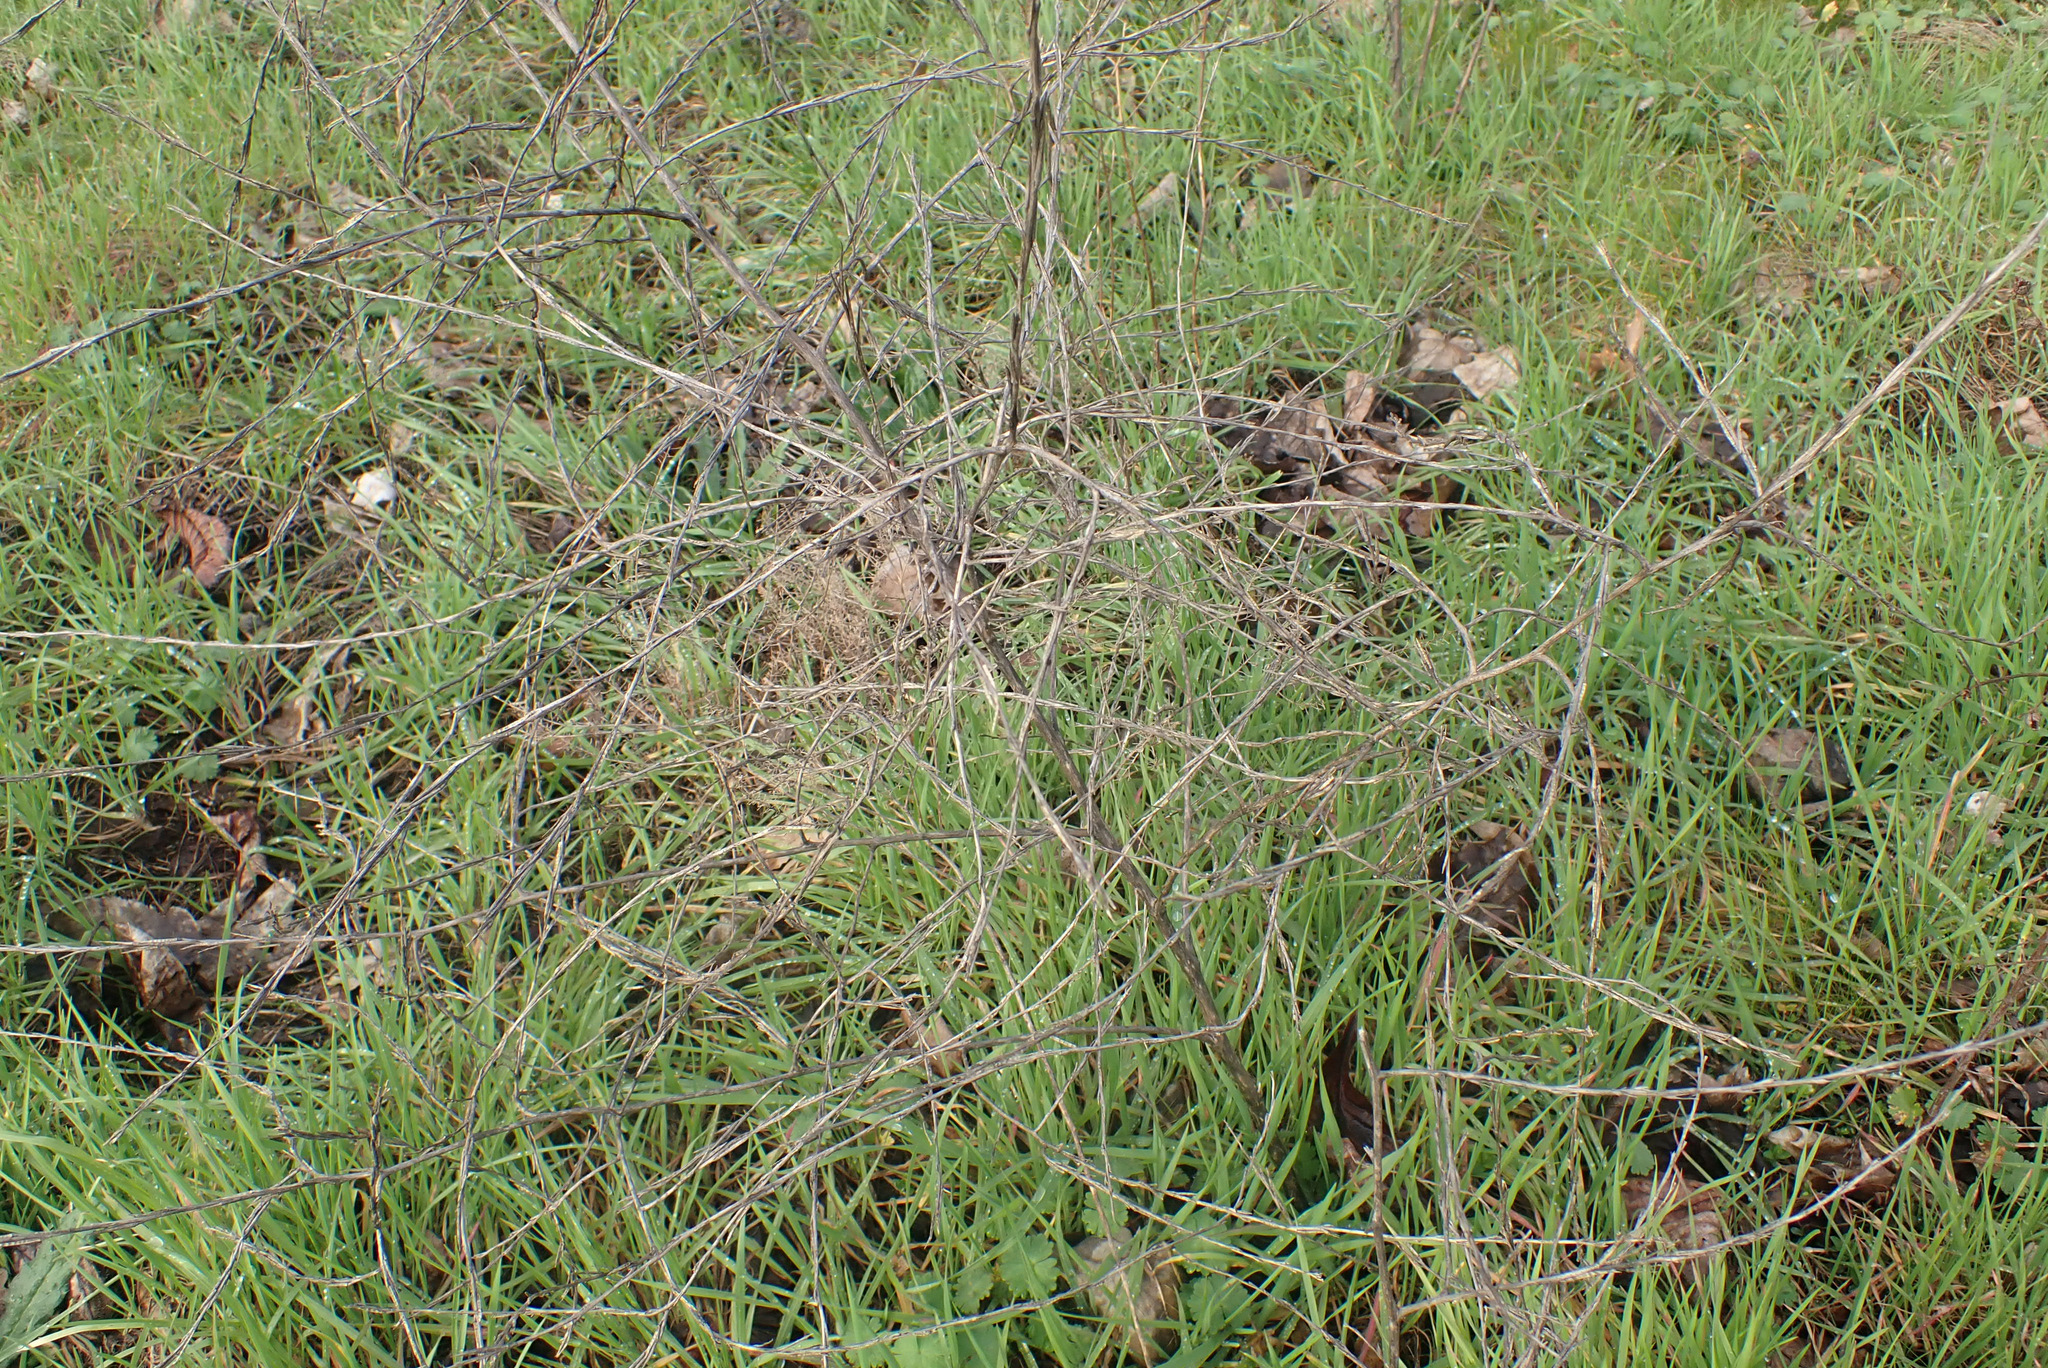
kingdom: Plantae
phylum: Tracheophyta
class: Magnoliopsida
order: Brassicales
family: Brassicaceae
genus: Sisymbrium
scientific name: Sisymbrium officinale
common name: Hedge mustard
